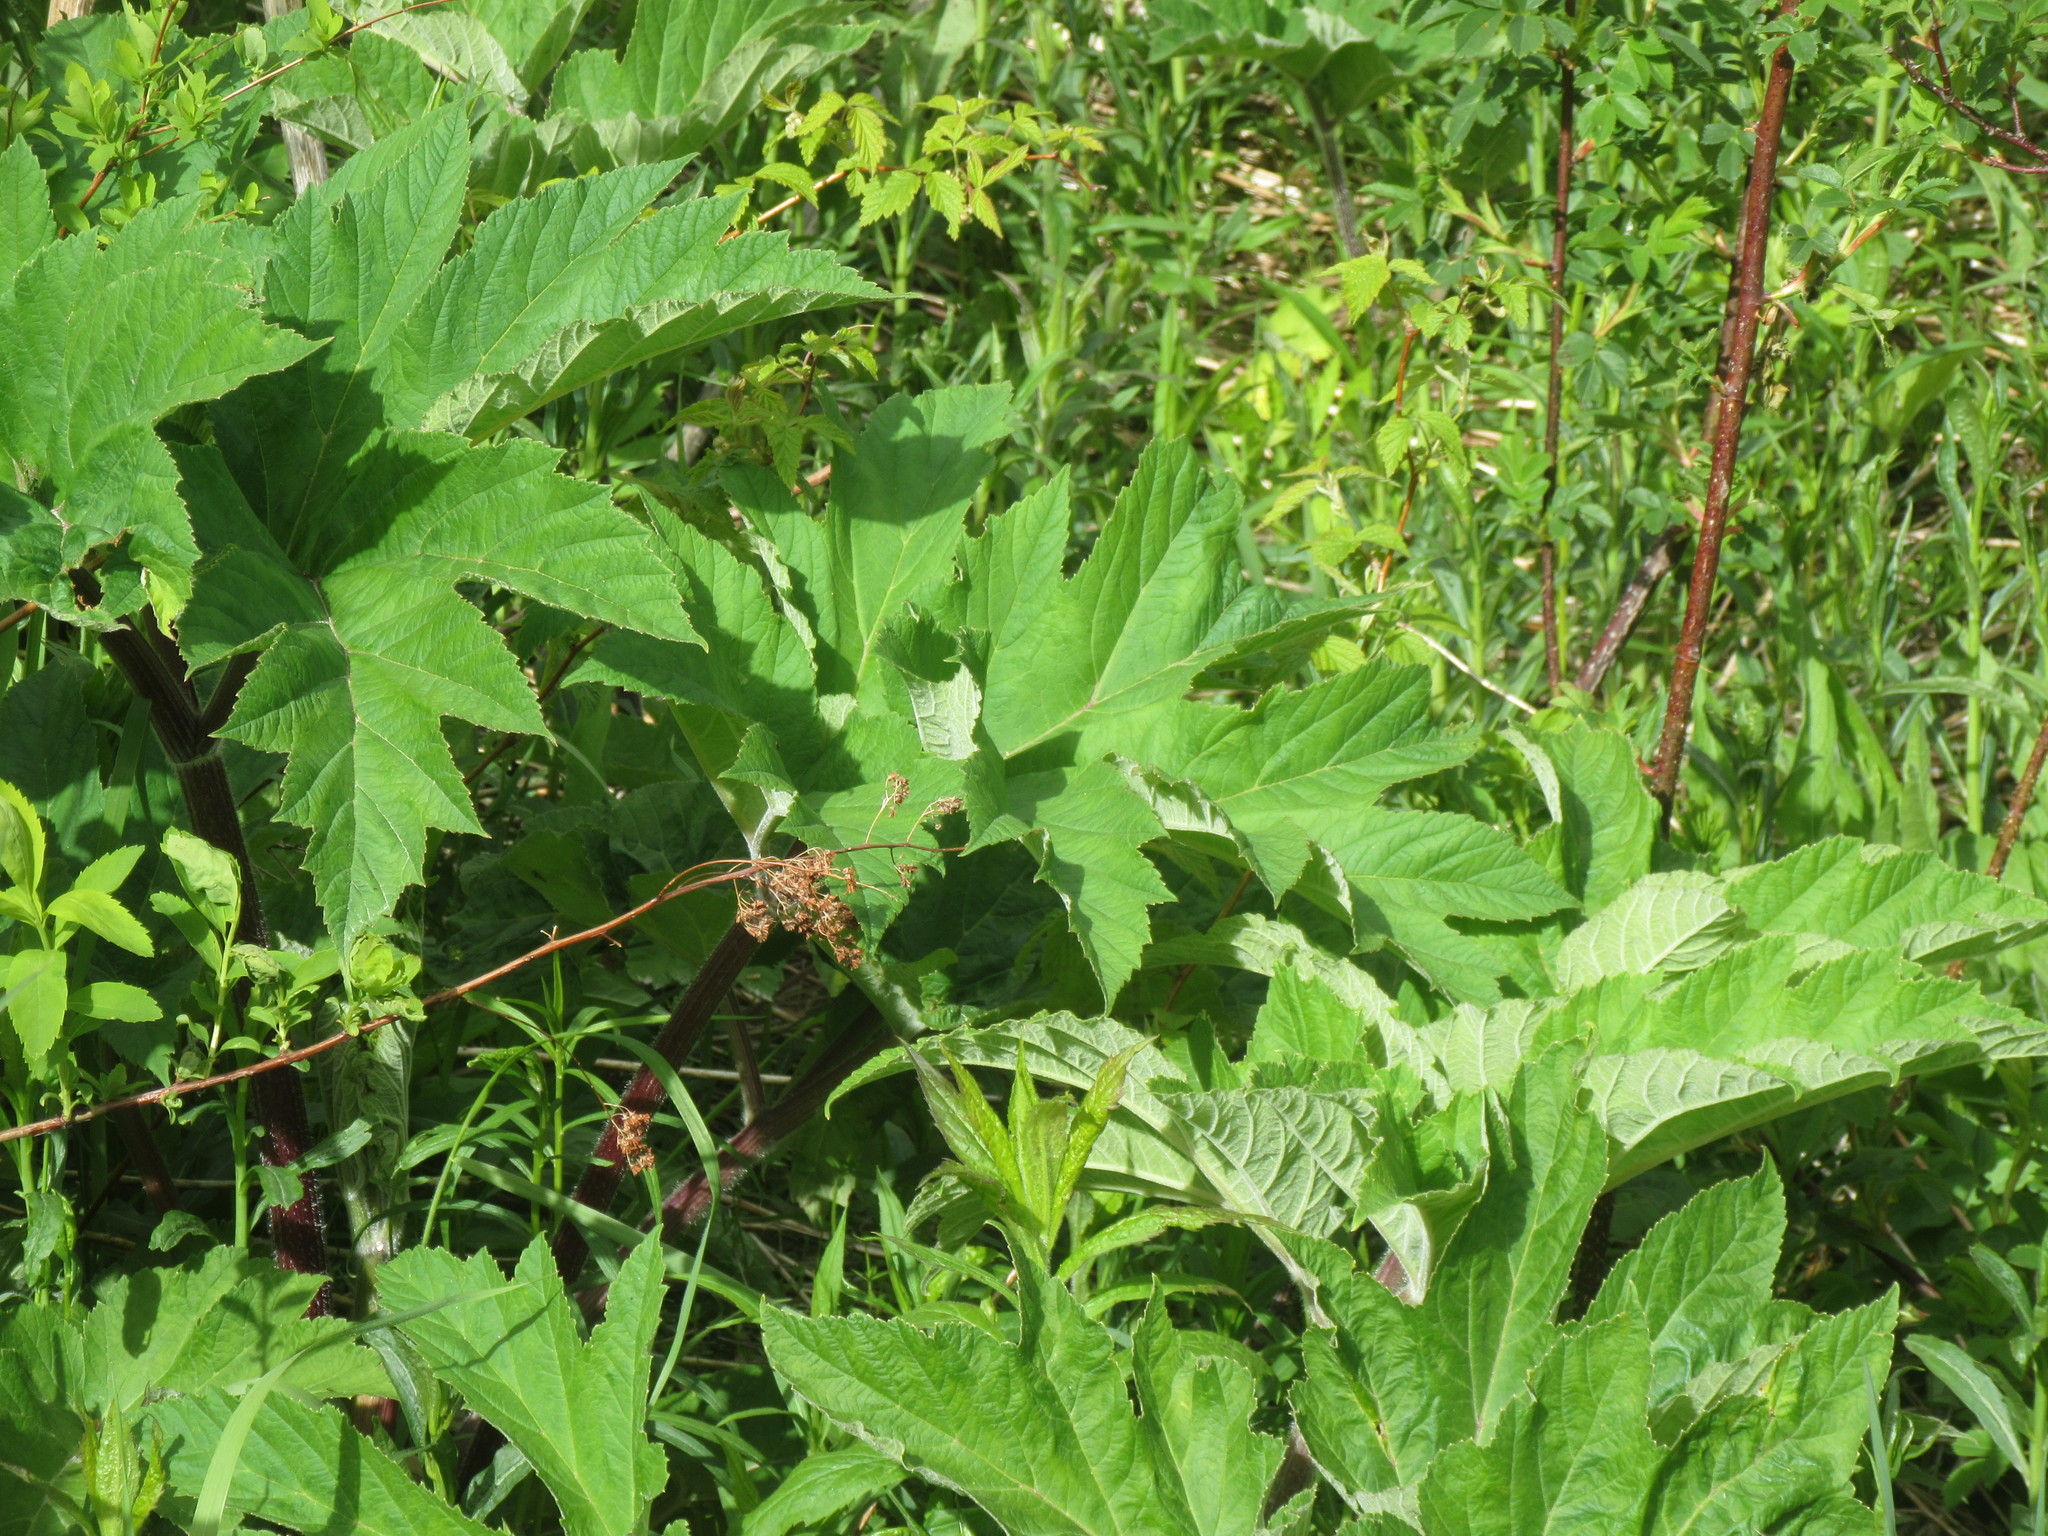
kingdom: Plantae
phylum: Tracheophyta
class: Magnoliopsida
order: Apiales
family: Apiaceae
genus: Heracleum
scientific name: Heracleum maximum
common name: American cow parsnip
